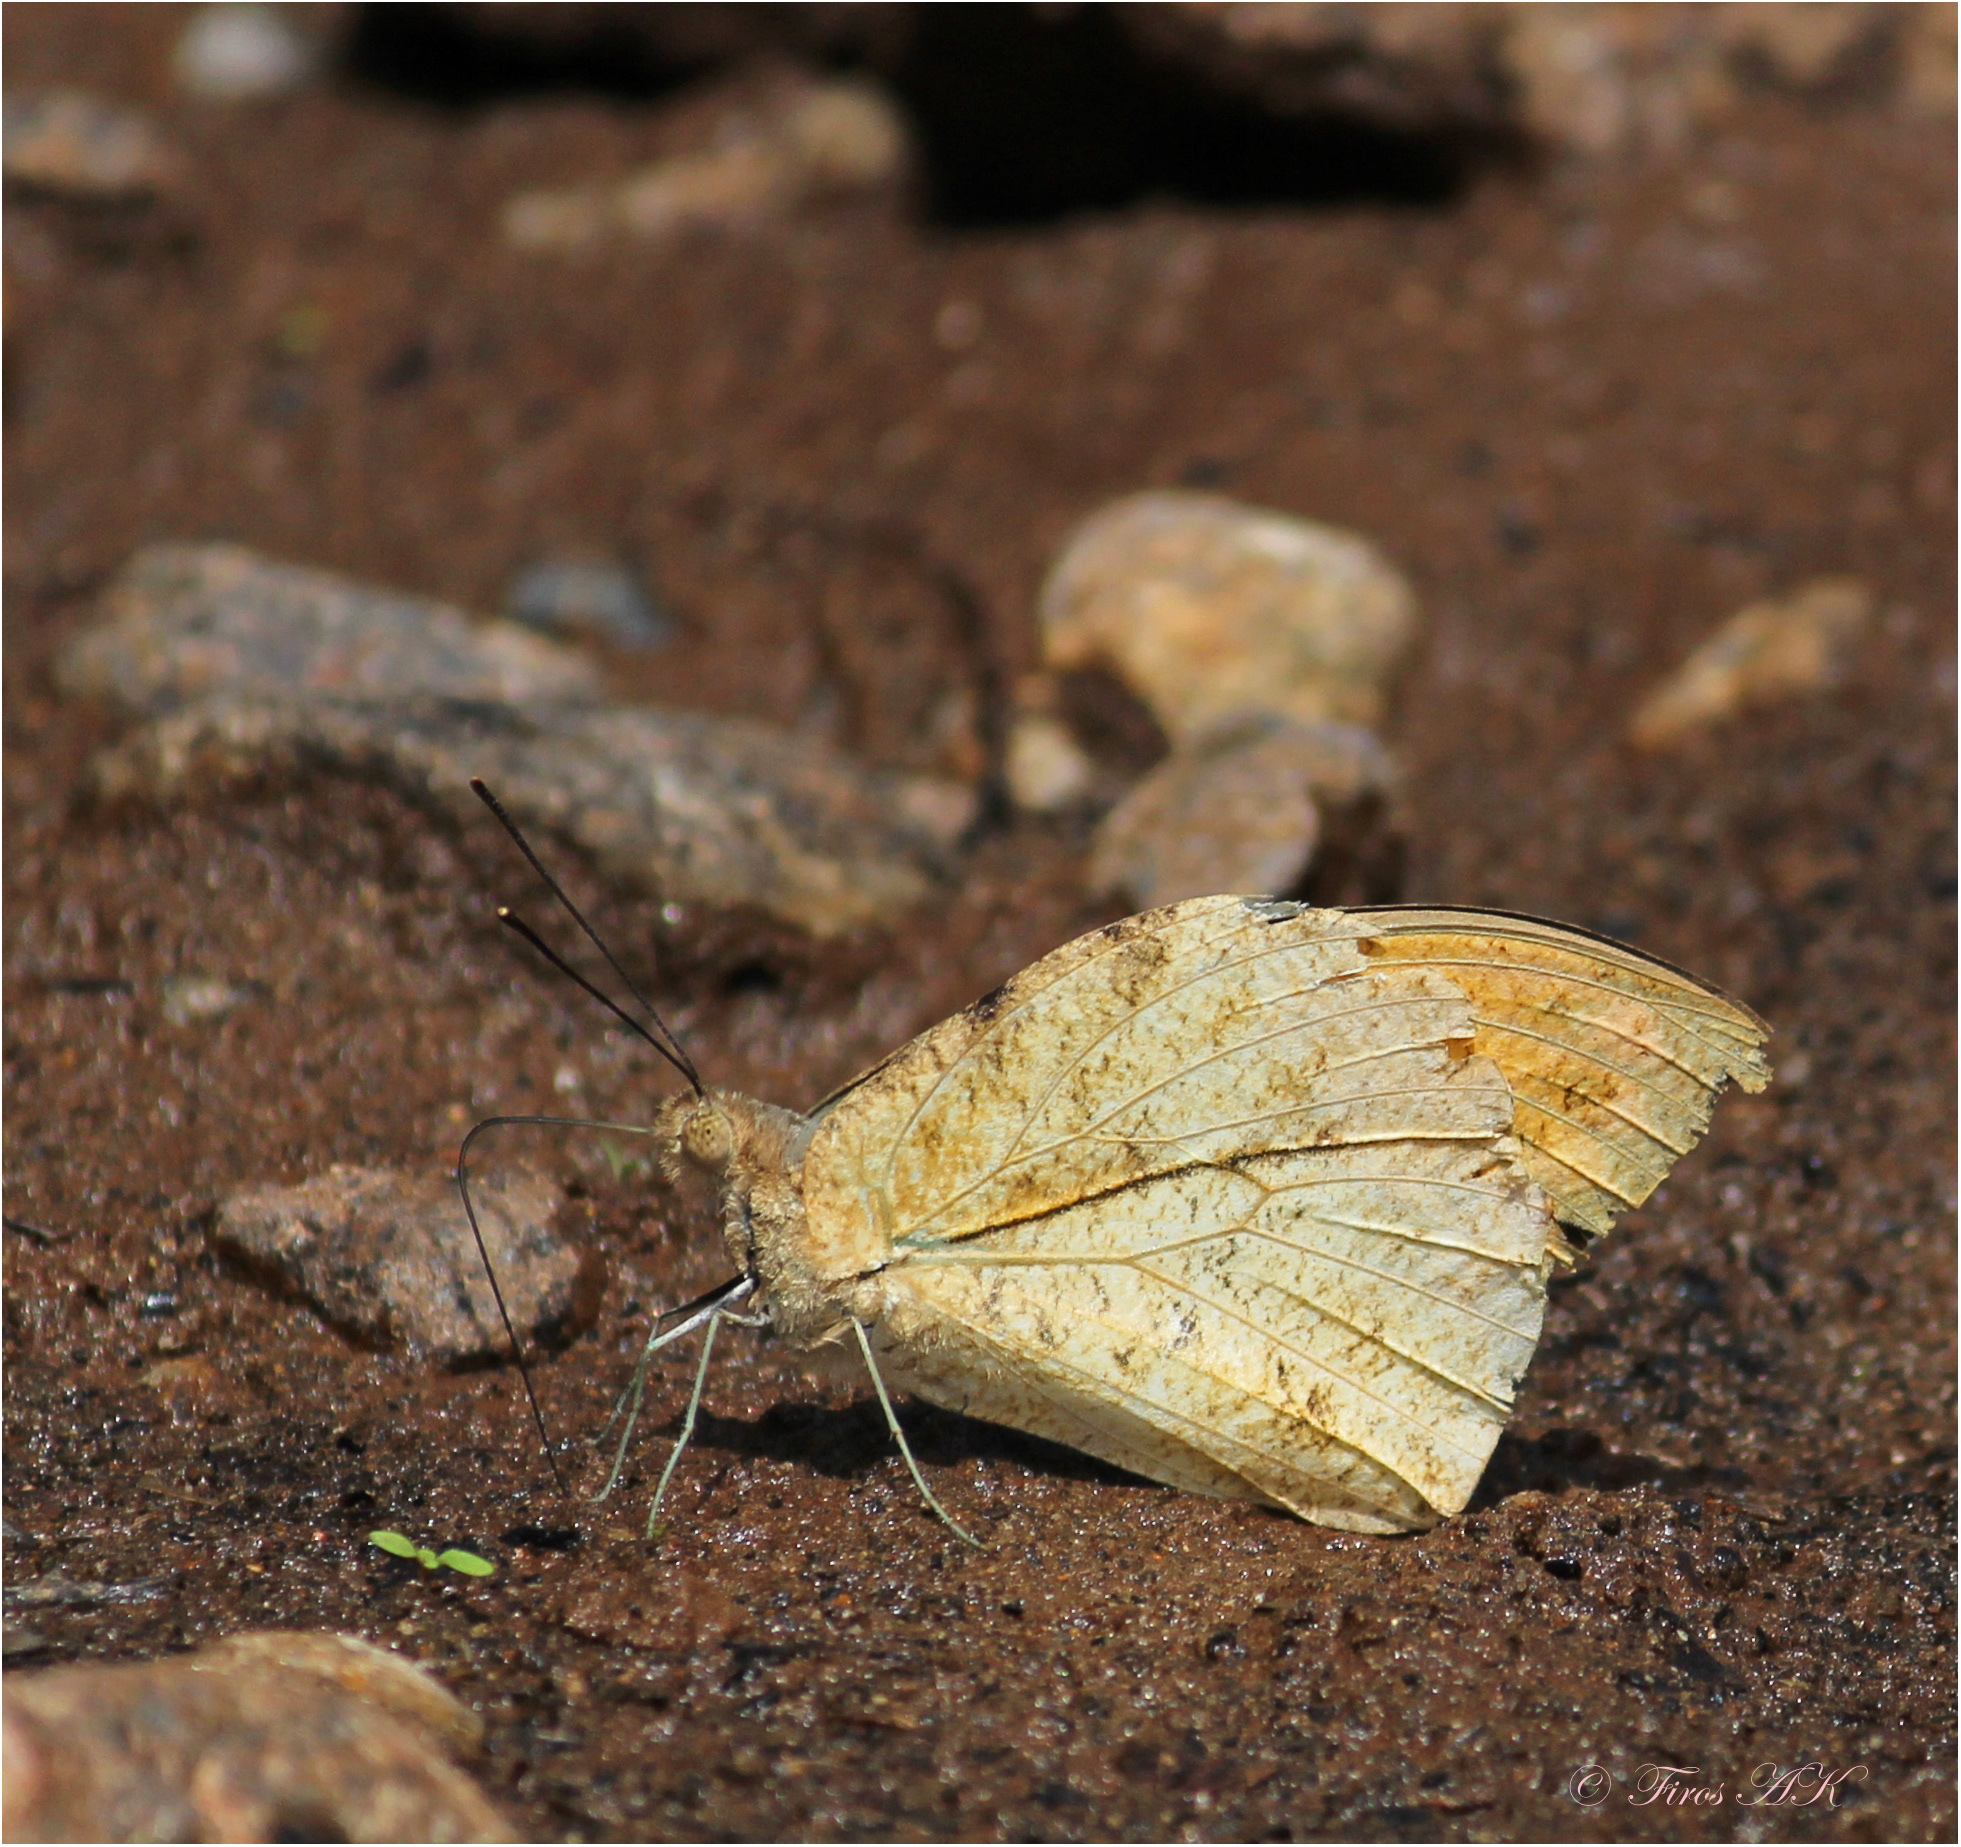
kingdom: Animalia
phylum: Arthropoda
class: Insecta
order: Lepidoptera
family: Pieridae
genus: Hebomoia
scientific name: Hebomoia glaucippe
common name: Great orange tip
